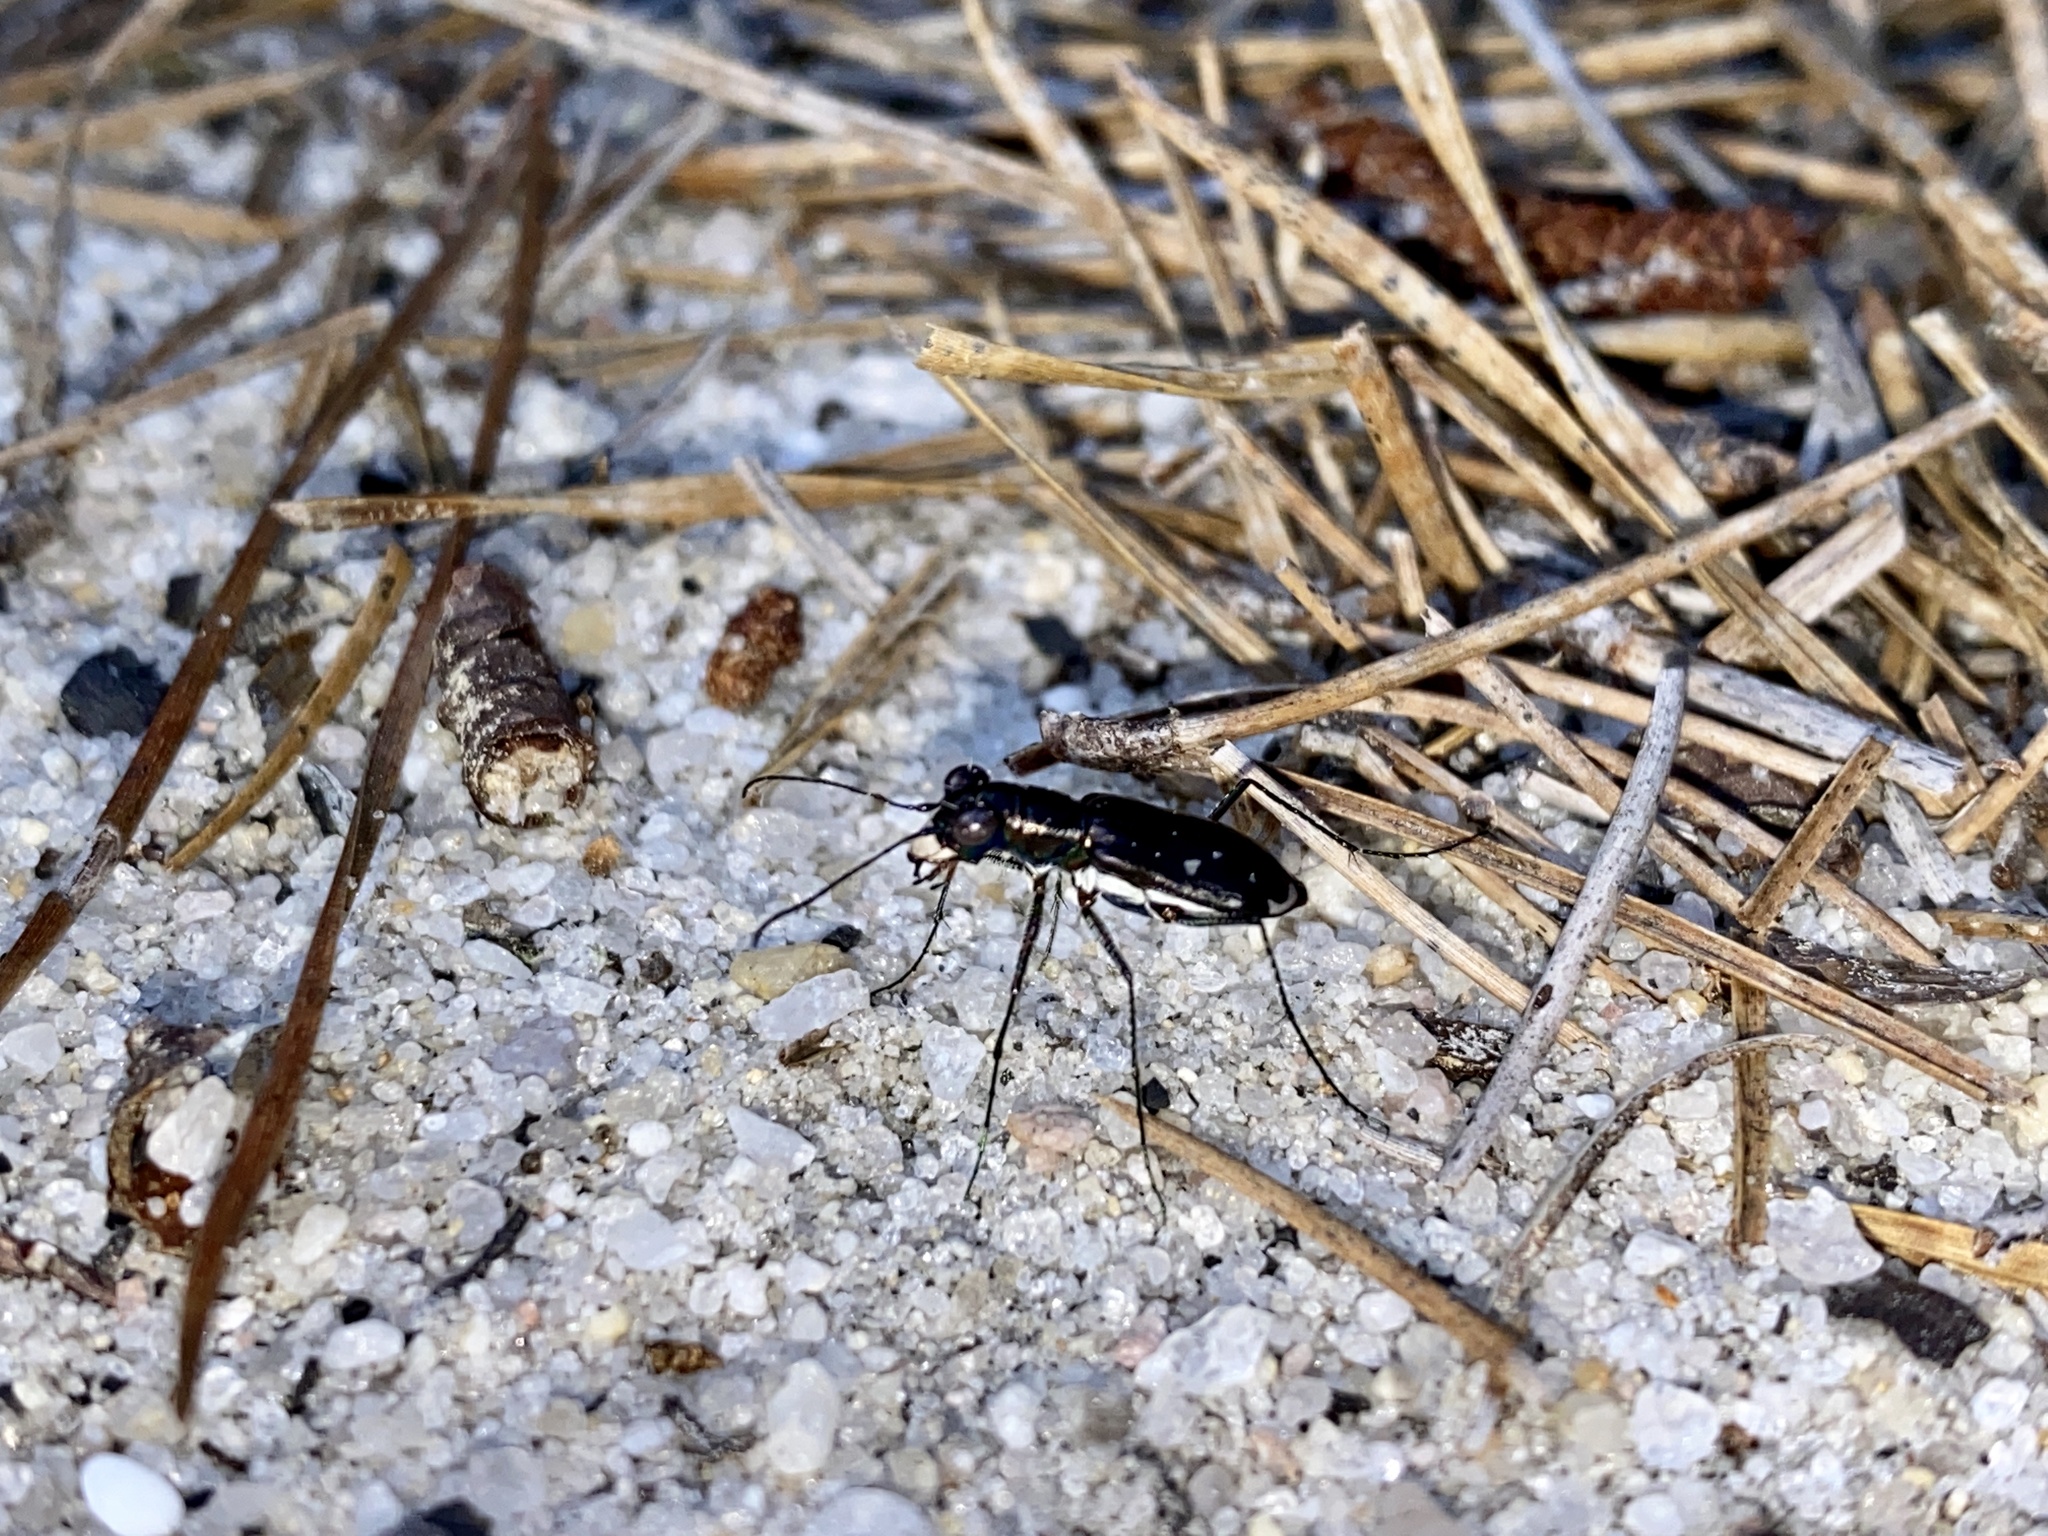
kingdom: Animalia
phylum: Arthropoda
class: Insecta
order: Coleoptera
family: Carabidae
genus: Cicindela
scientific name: Cicindela abdominalis
